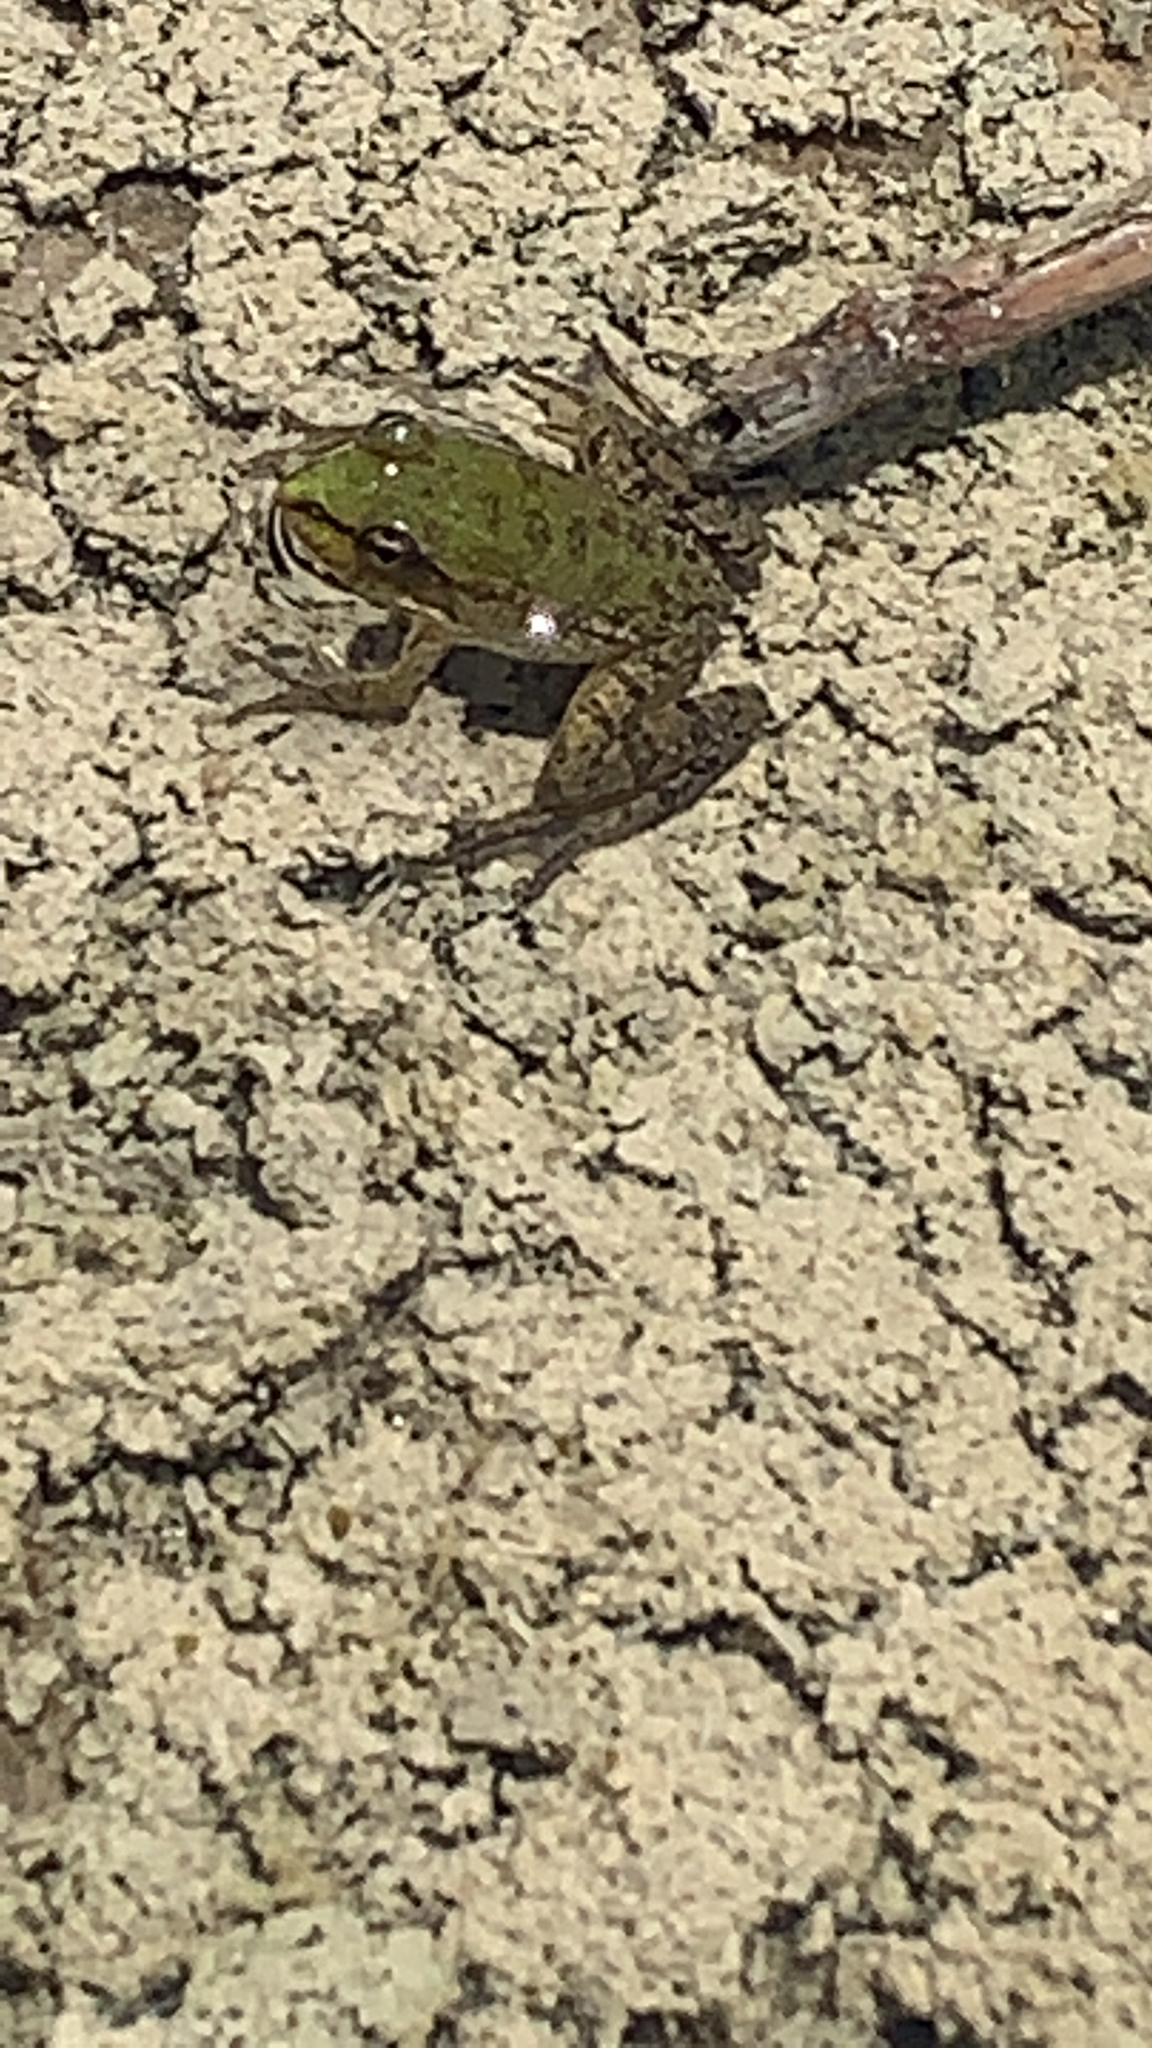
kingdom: Animalia
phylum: Chordata
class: Amphibia
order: Anura
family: Ranidae
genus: Pelophylax
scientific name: Pelophylax ridibundus
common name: Marsh frog
